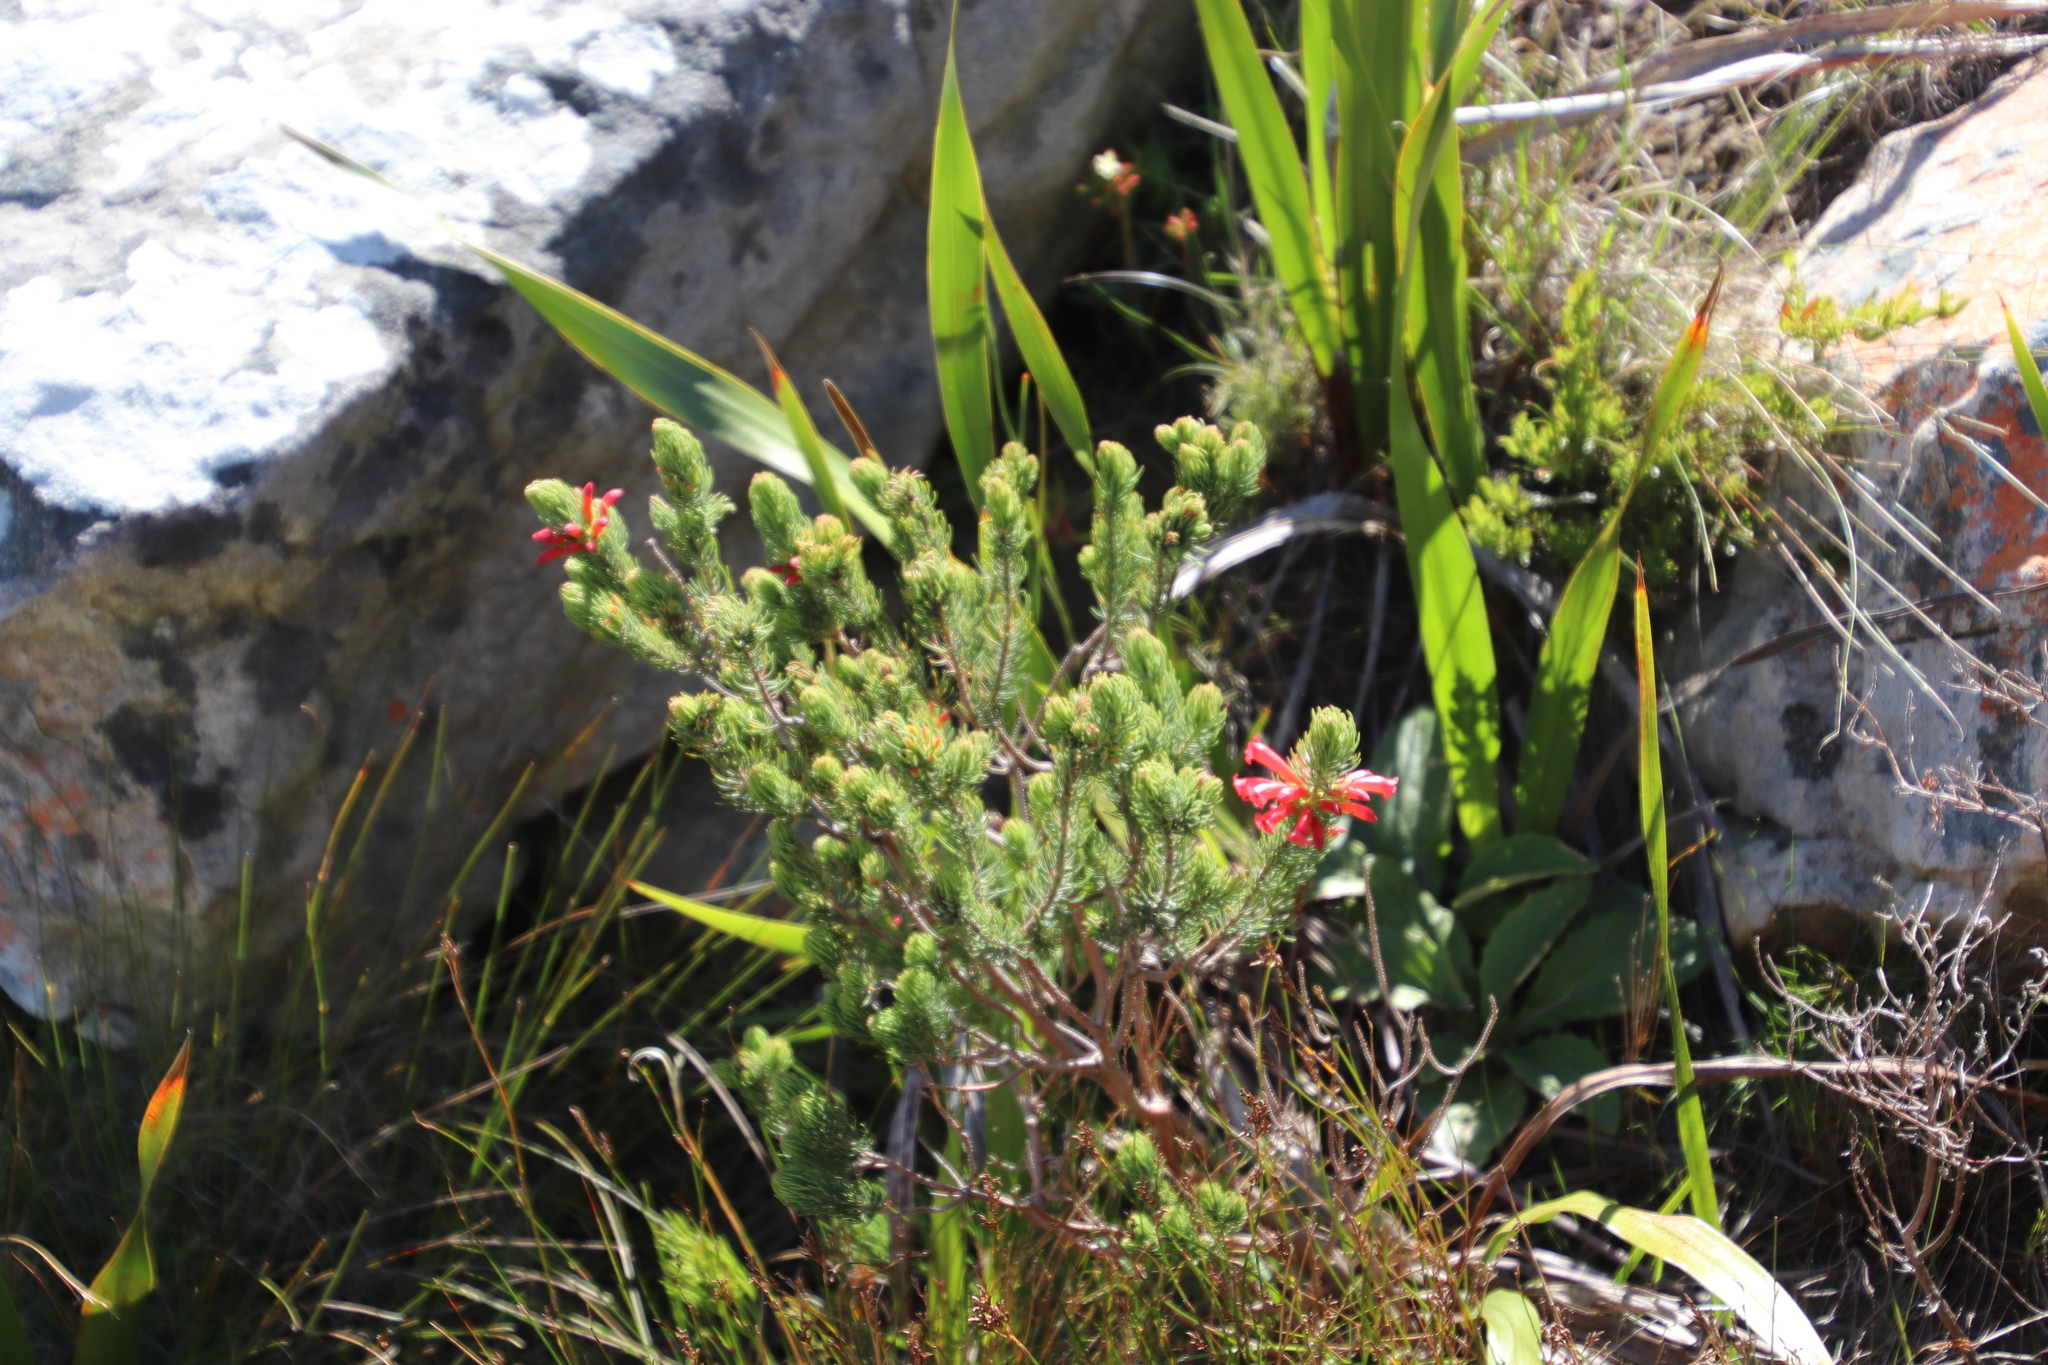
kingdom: Plantae
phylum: Tracheophyta
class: Magnoliopsida
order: Ericales
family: Ericaceae
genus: Erica
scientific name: Erica viscaria
